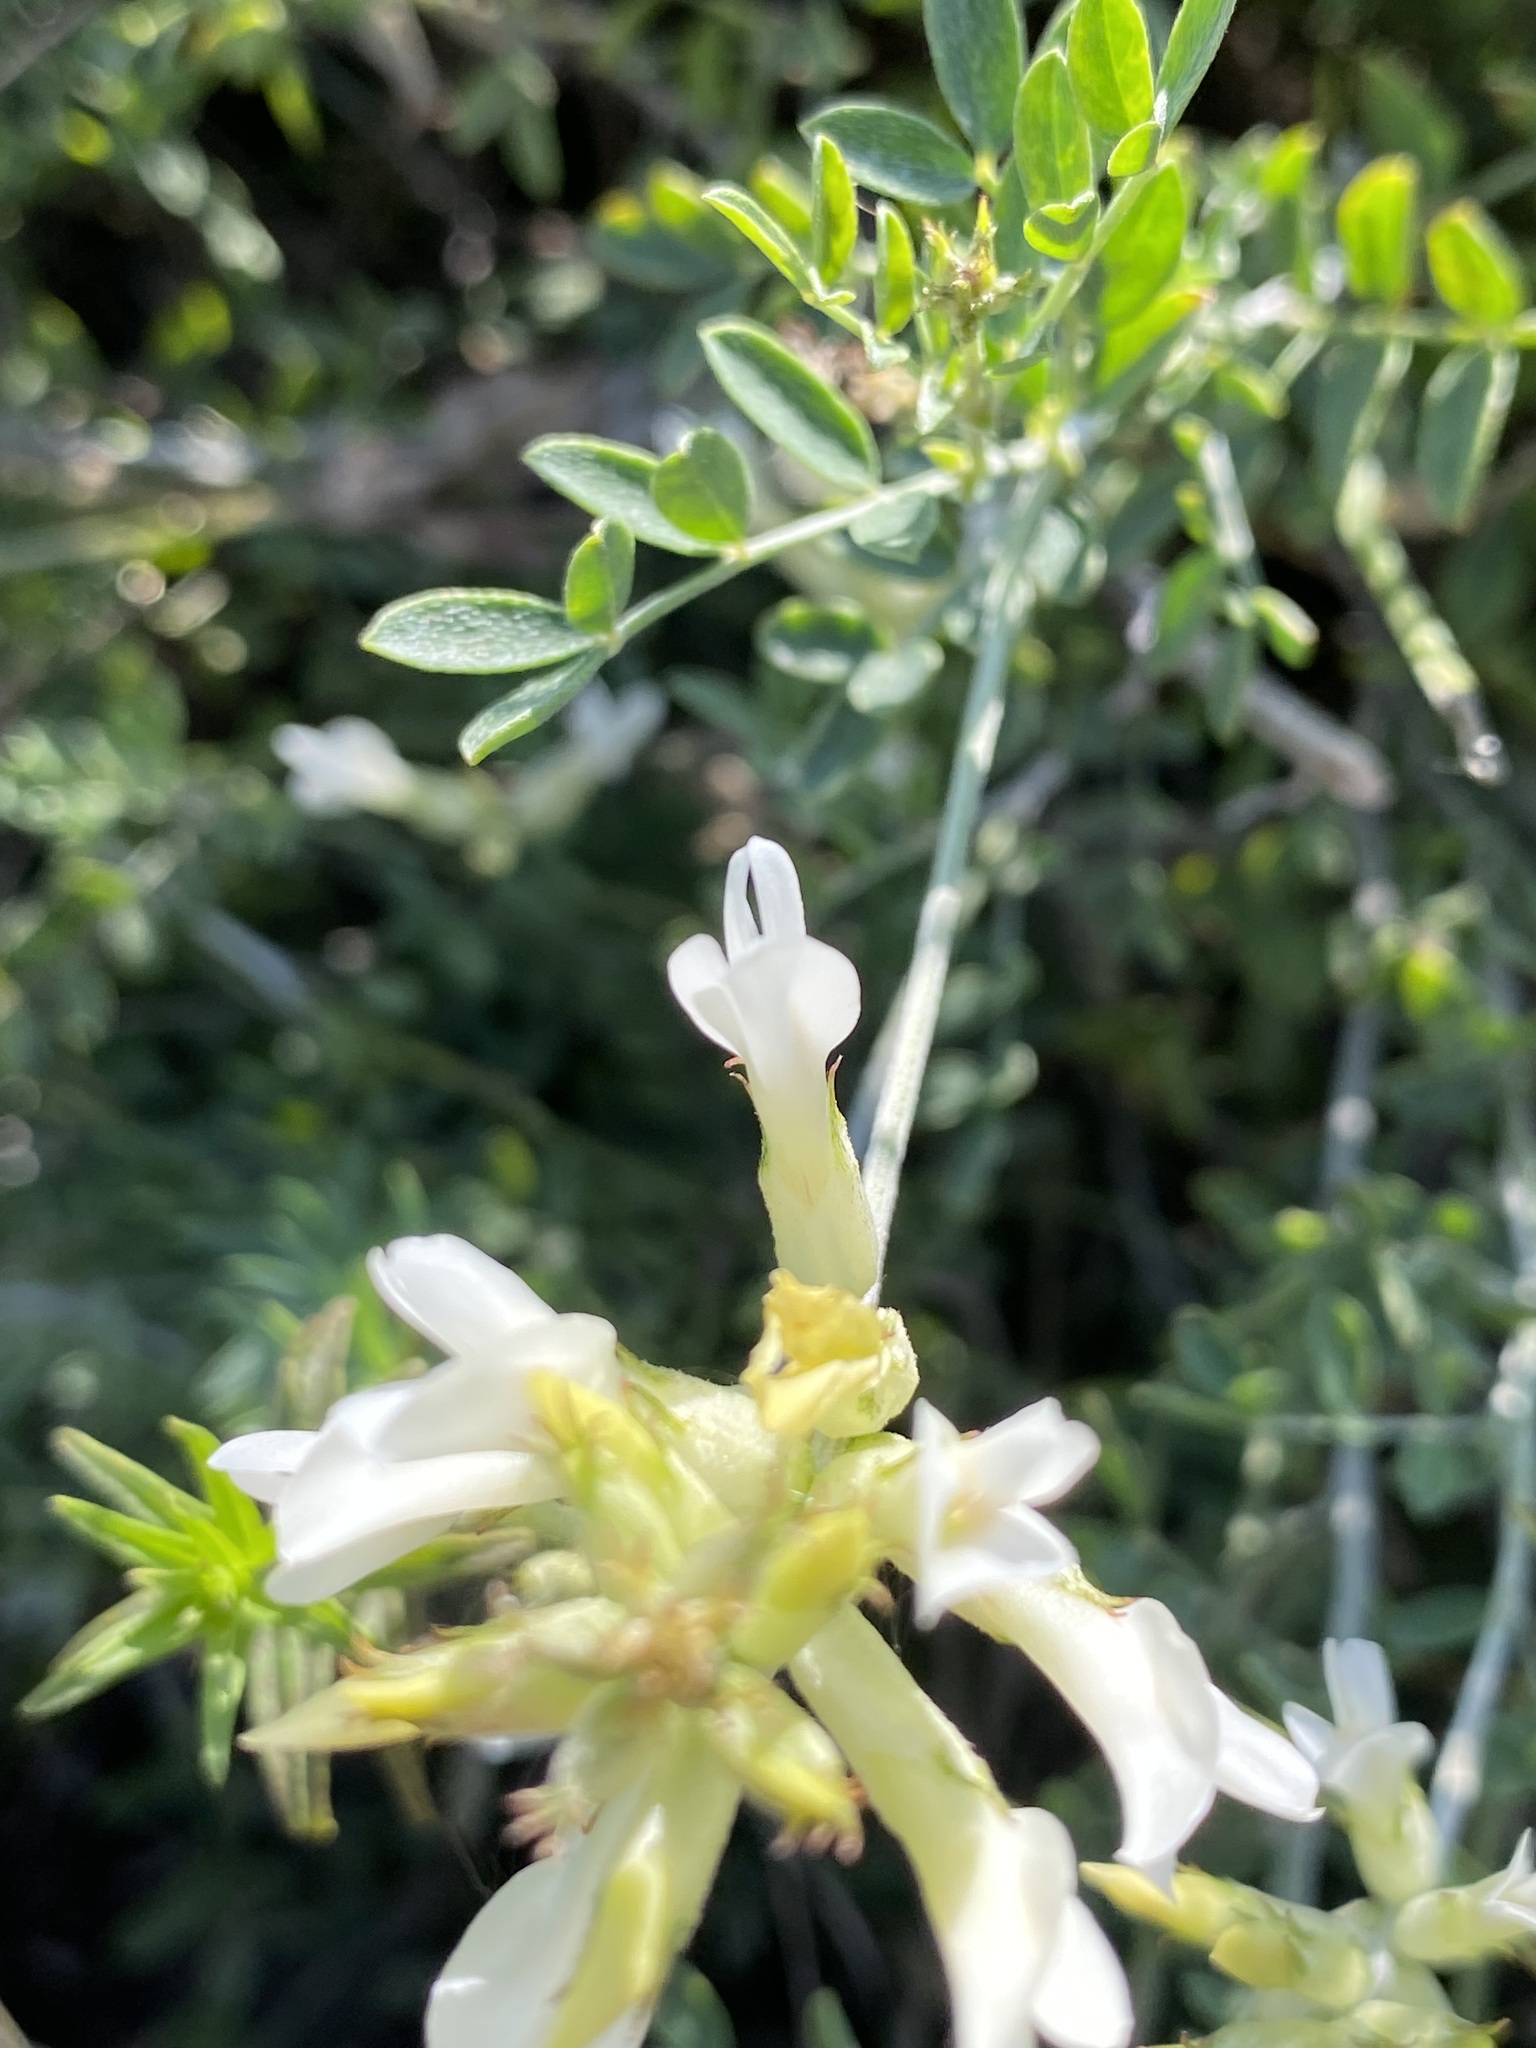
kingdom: Plantae
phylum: Tracheophyta
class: Magnoliopsida
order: Fabales
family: Fabaceae
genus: Astragalus
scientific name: Astragalus albicaulis
